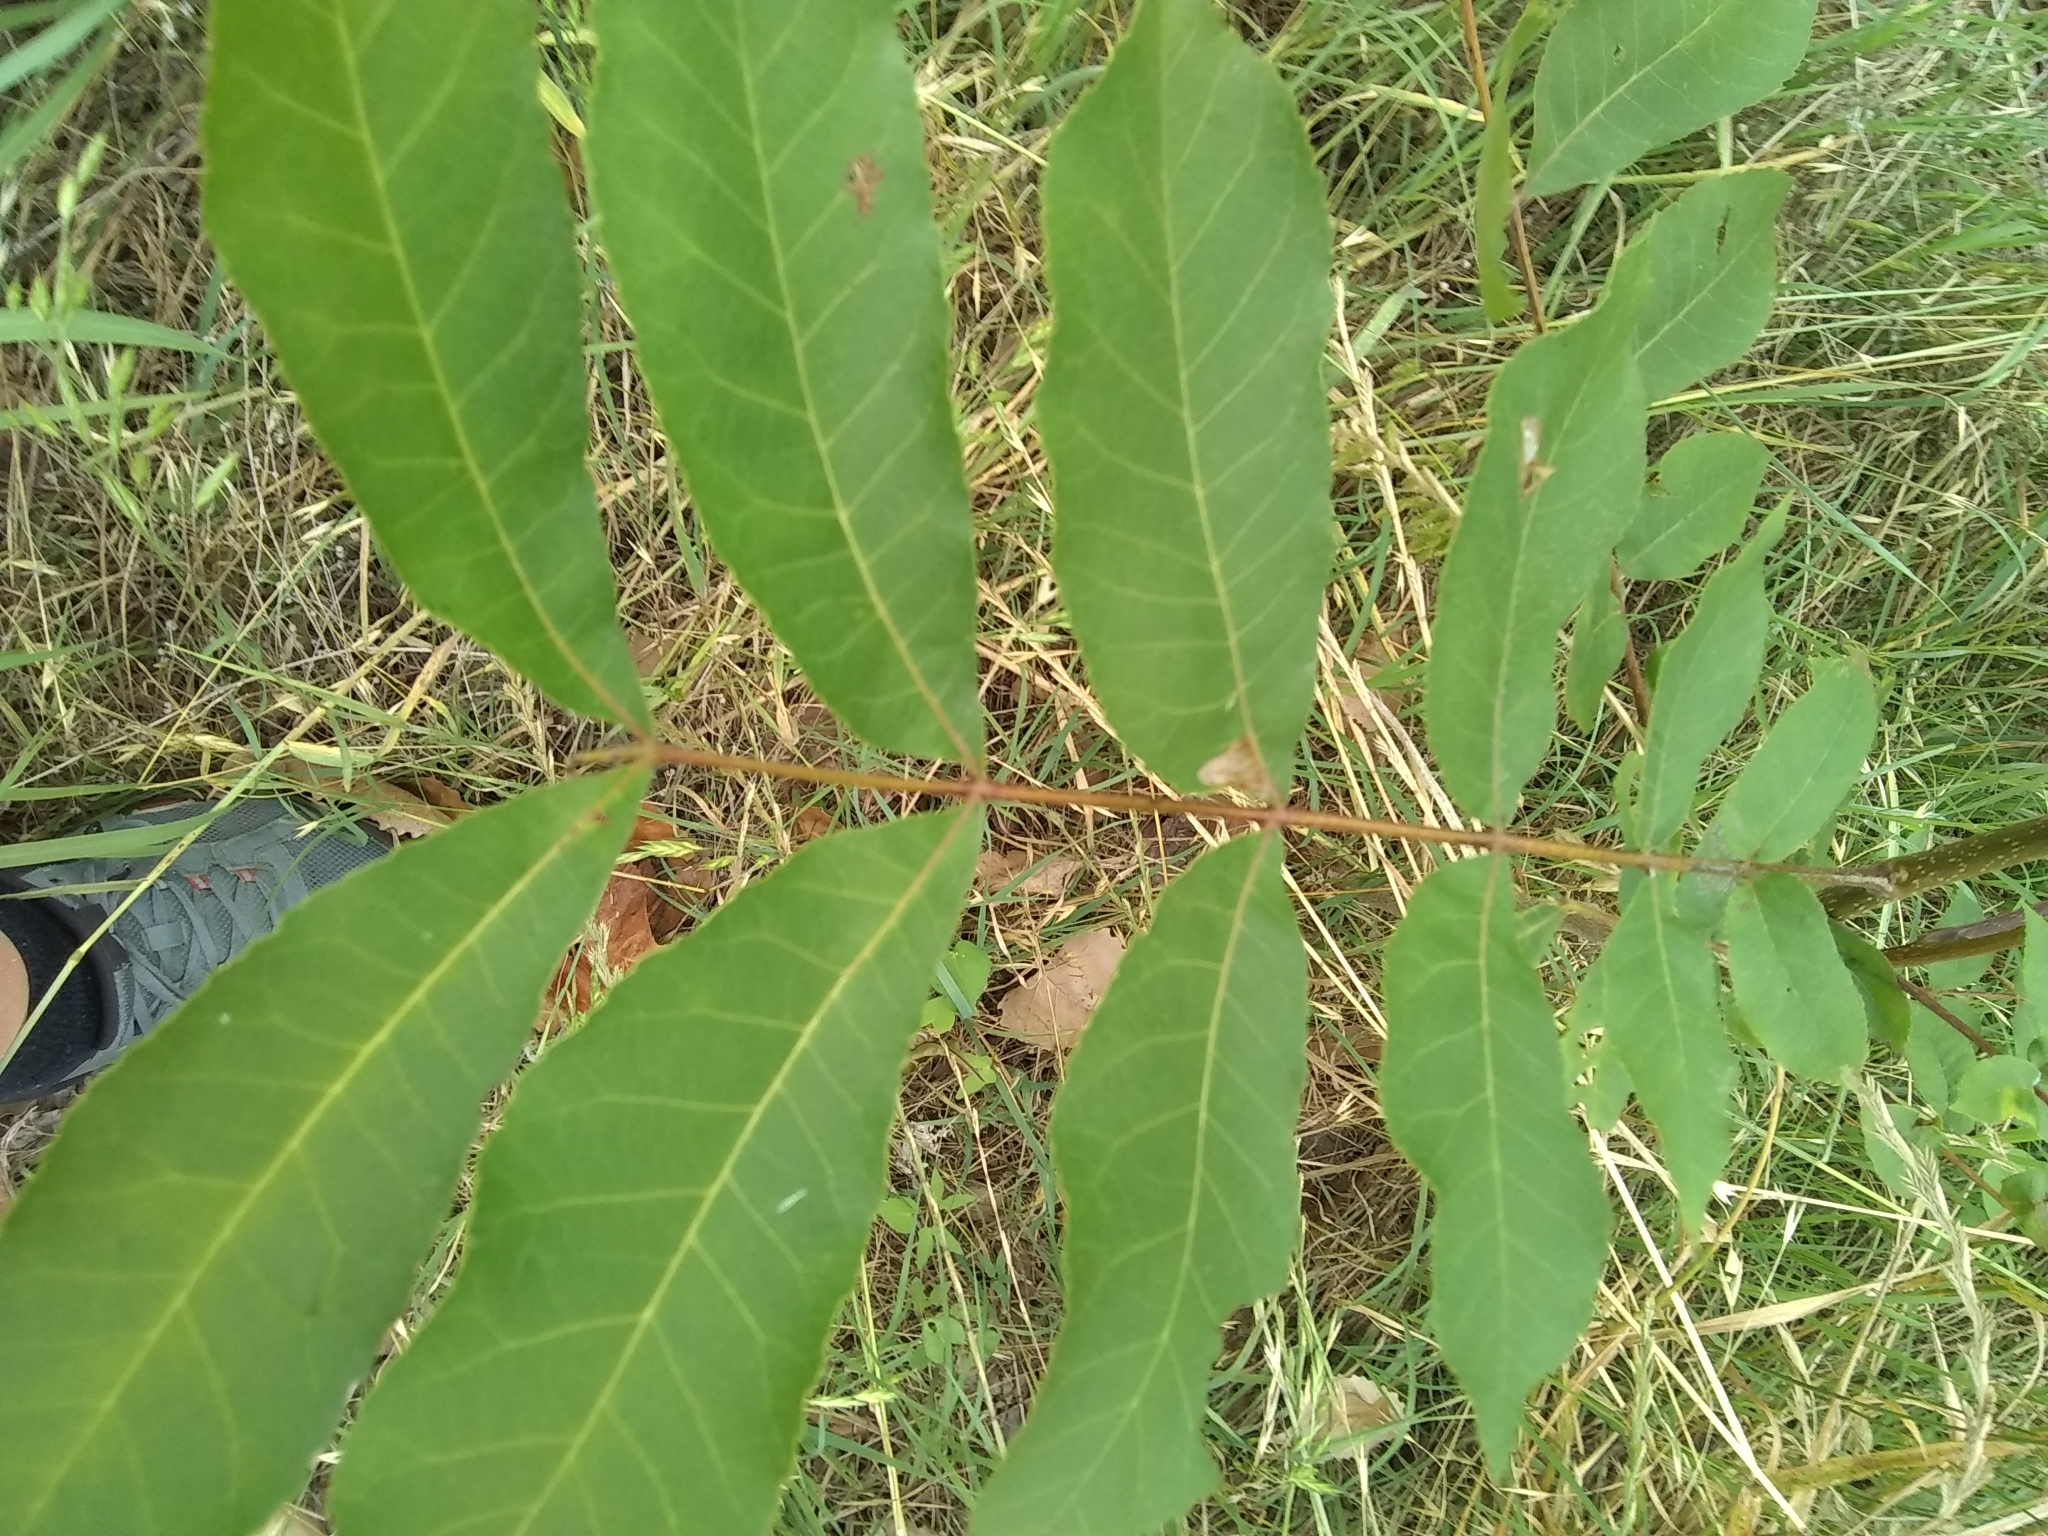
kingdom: Plantae
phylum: Tracheophyta
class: Magnoliopsida
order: Fagales
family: Juglandaceae
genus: Carya
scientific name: Carya illinoinensis
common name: Pecan
